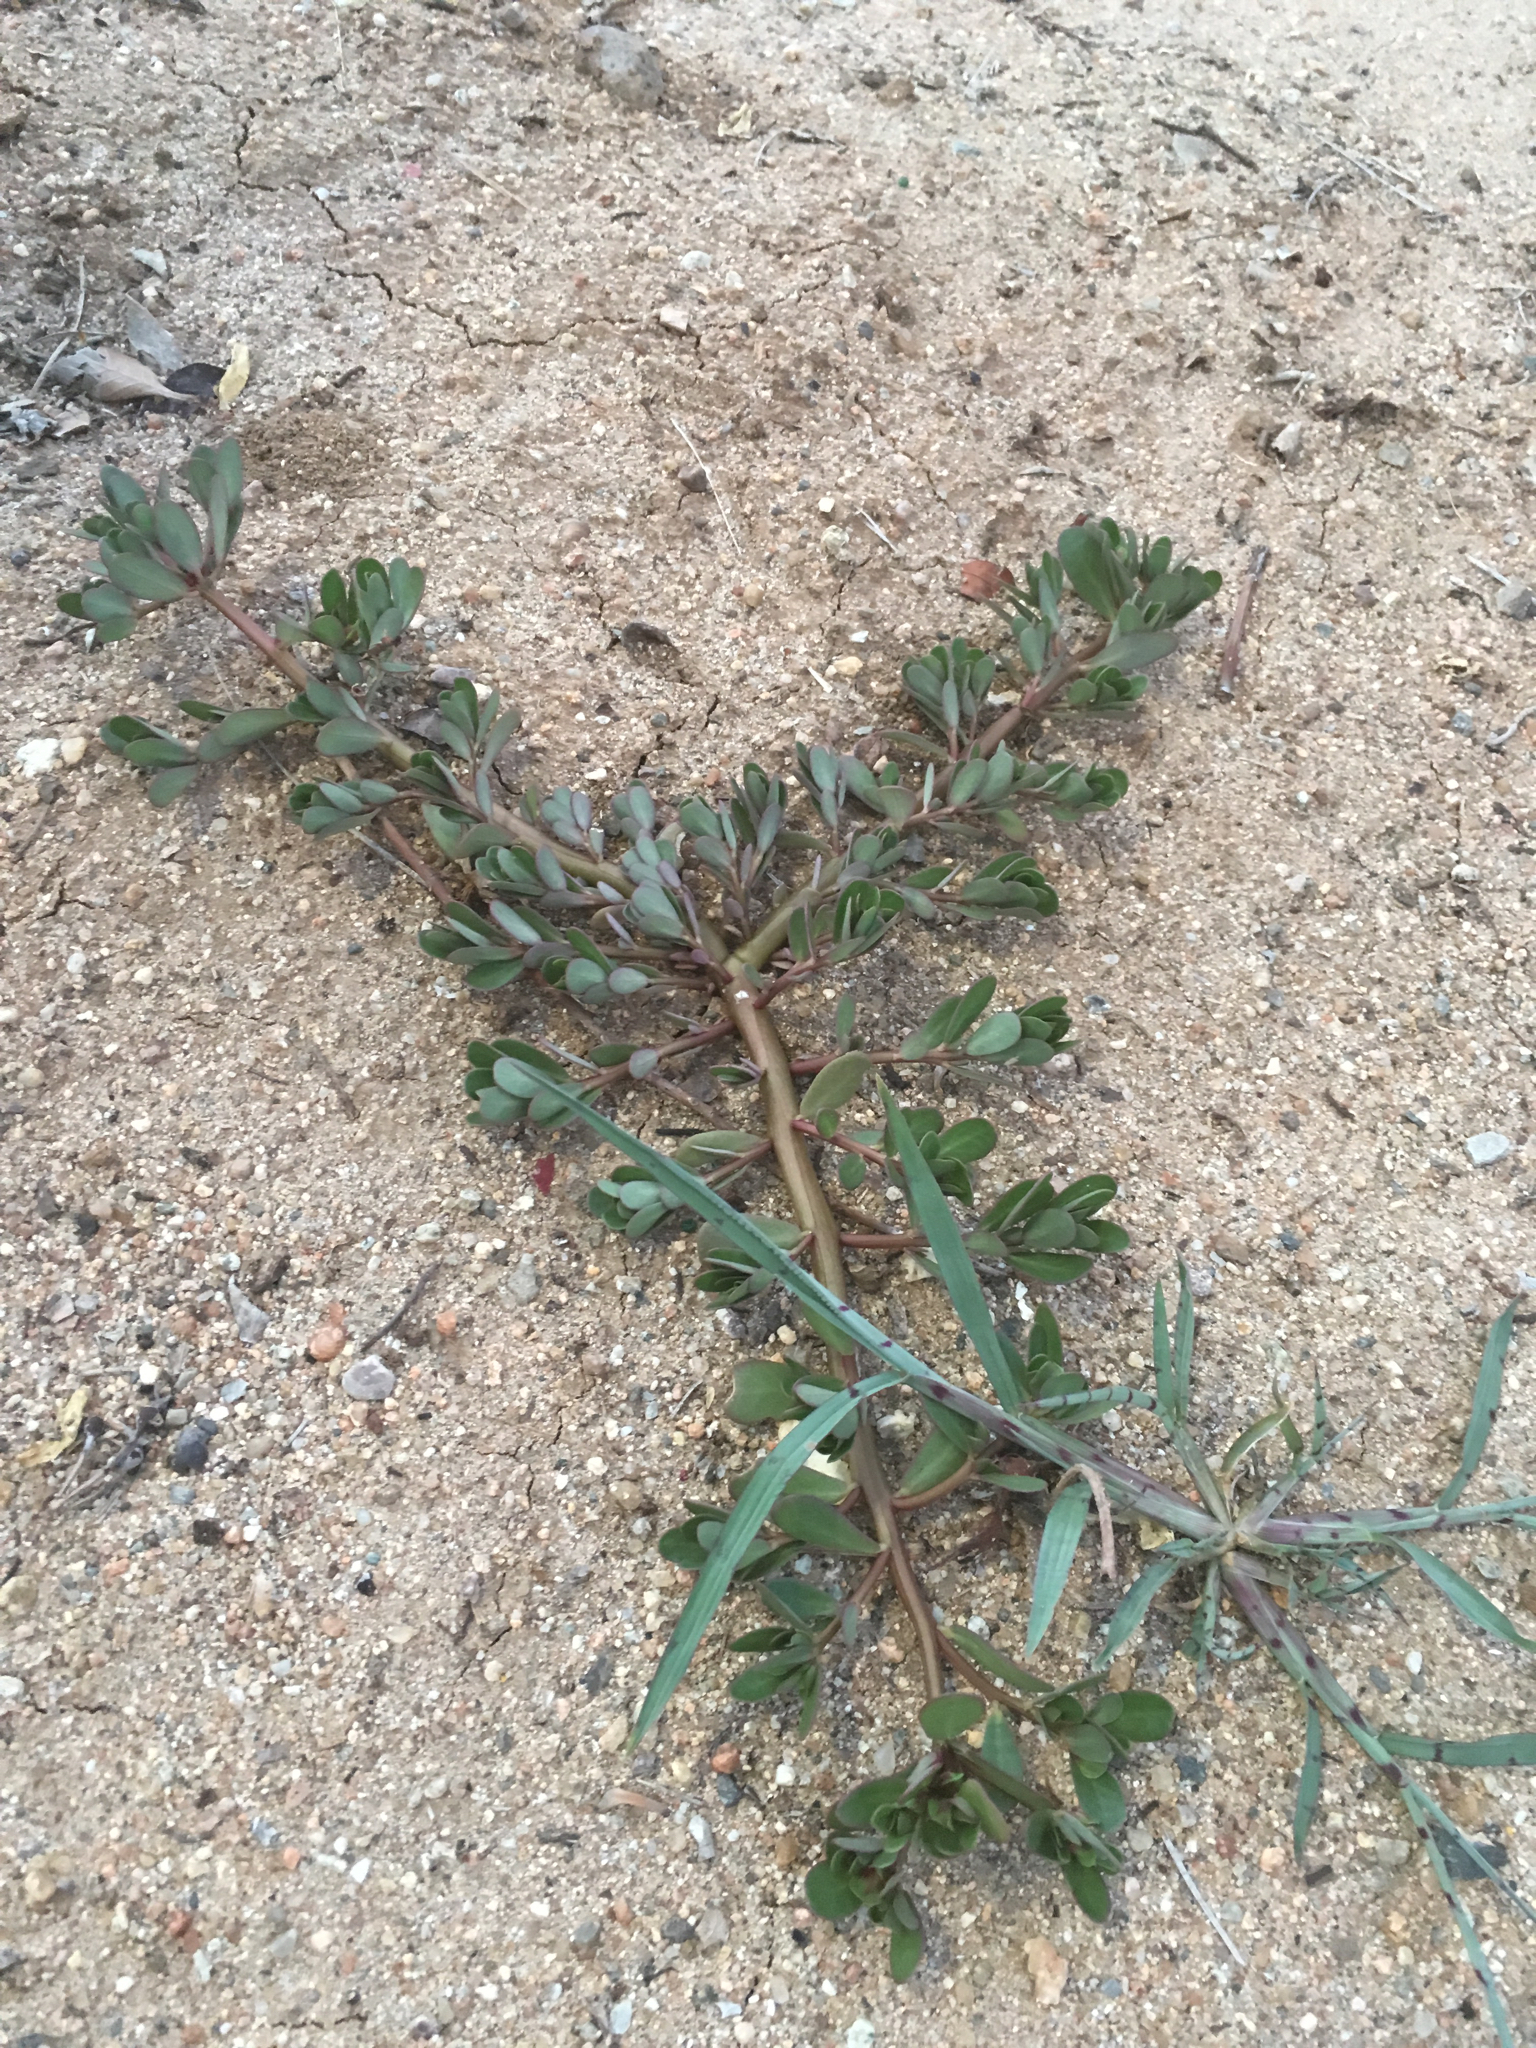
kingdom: Plantae
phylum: Tracheophyta
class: Magnoliopsida
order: Caryophyllales
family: Portulacaceae
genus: Portulaca
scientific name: Portulaca oleracea
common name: Common purslane
